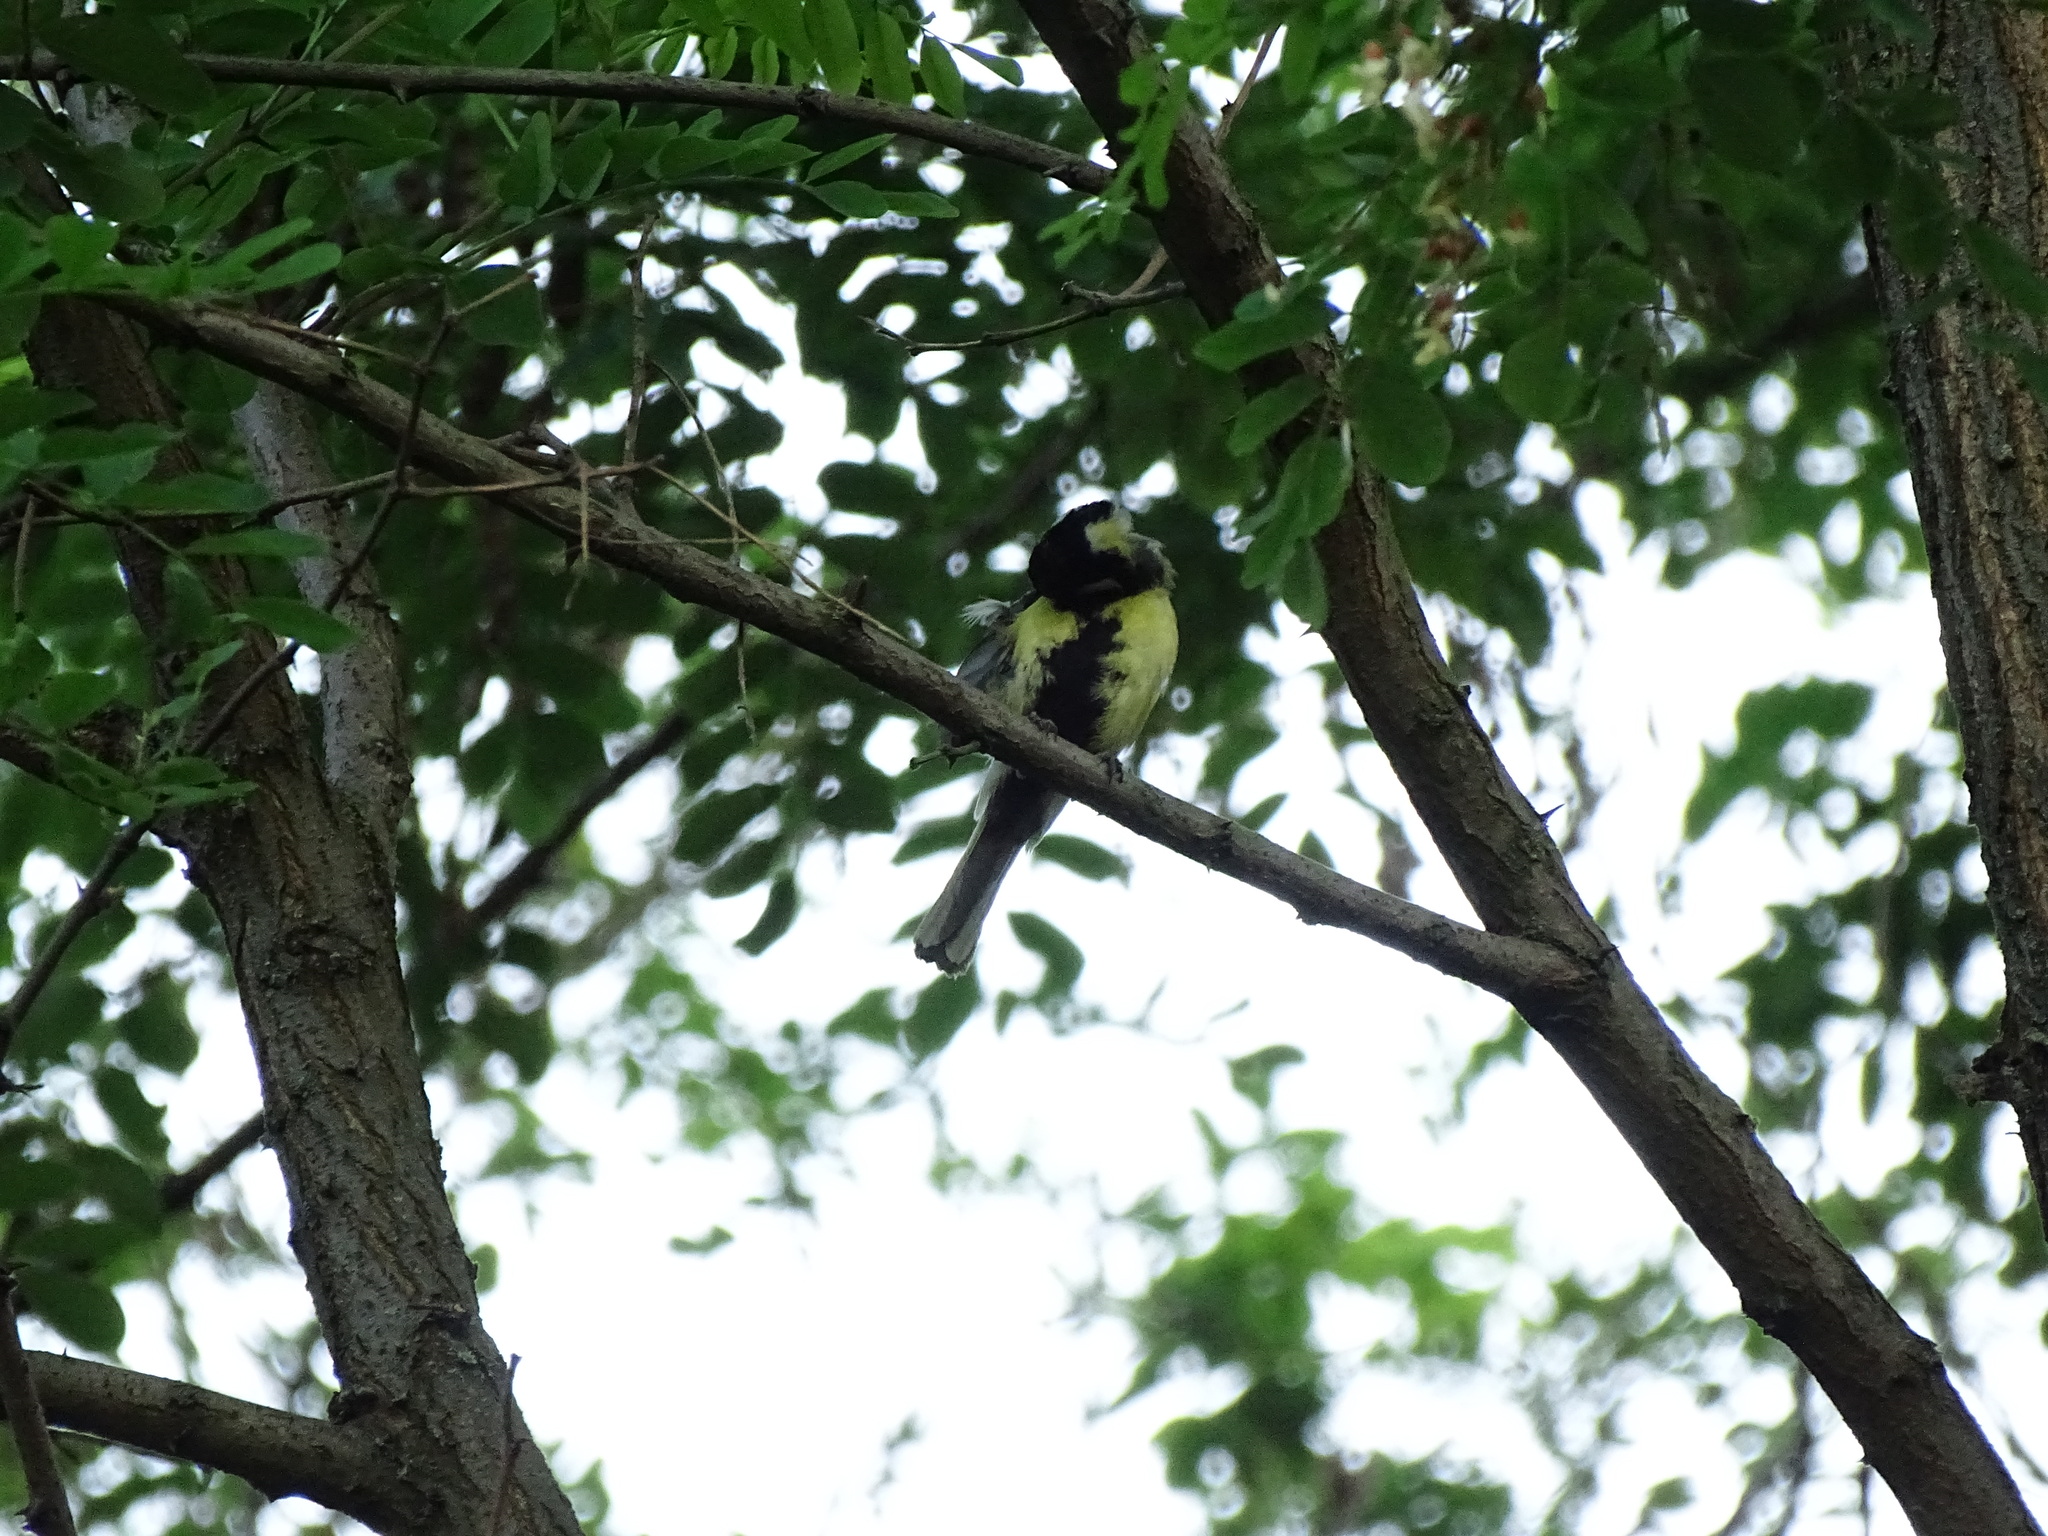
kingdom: Animalia
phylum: Chordata
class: Aves
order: Passeriformes
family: Paridae
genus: Parus
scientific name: Parus major
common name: Great tit
